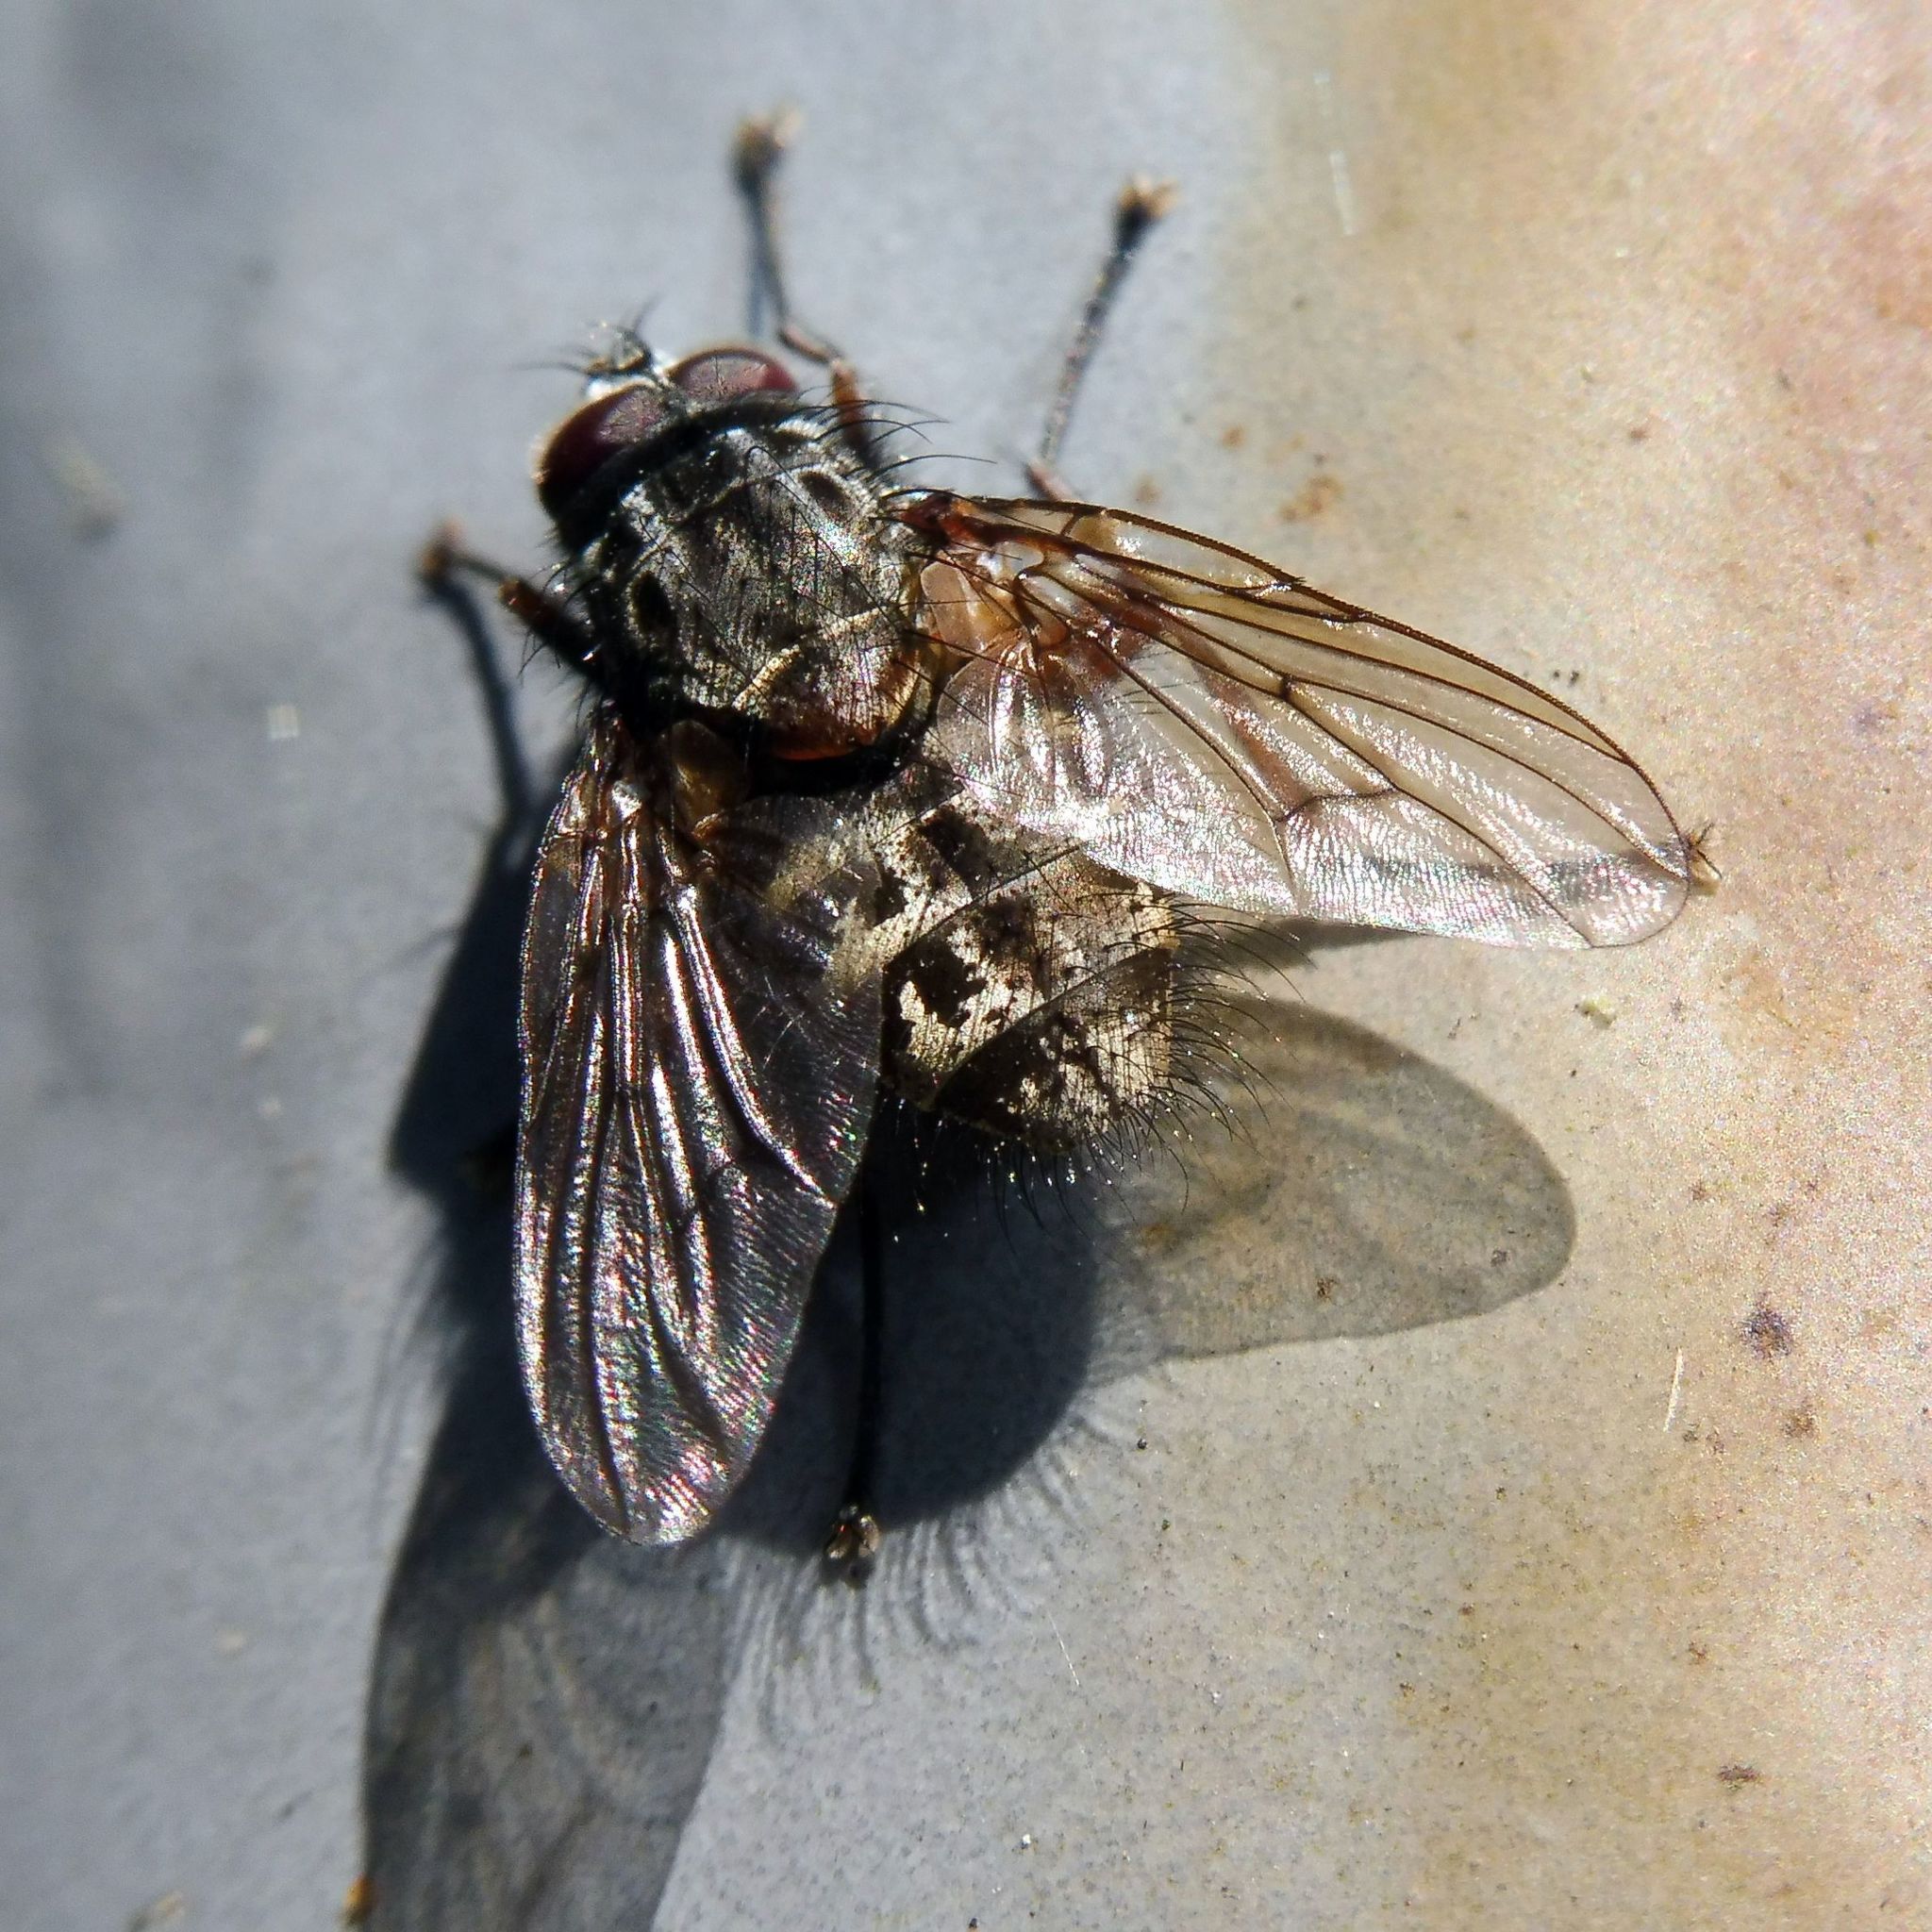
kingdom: Animalia
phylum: Arthropoda
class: Insecta
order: Diptera
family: Muscidae
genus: Phaonia
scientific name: Phaonia errans
